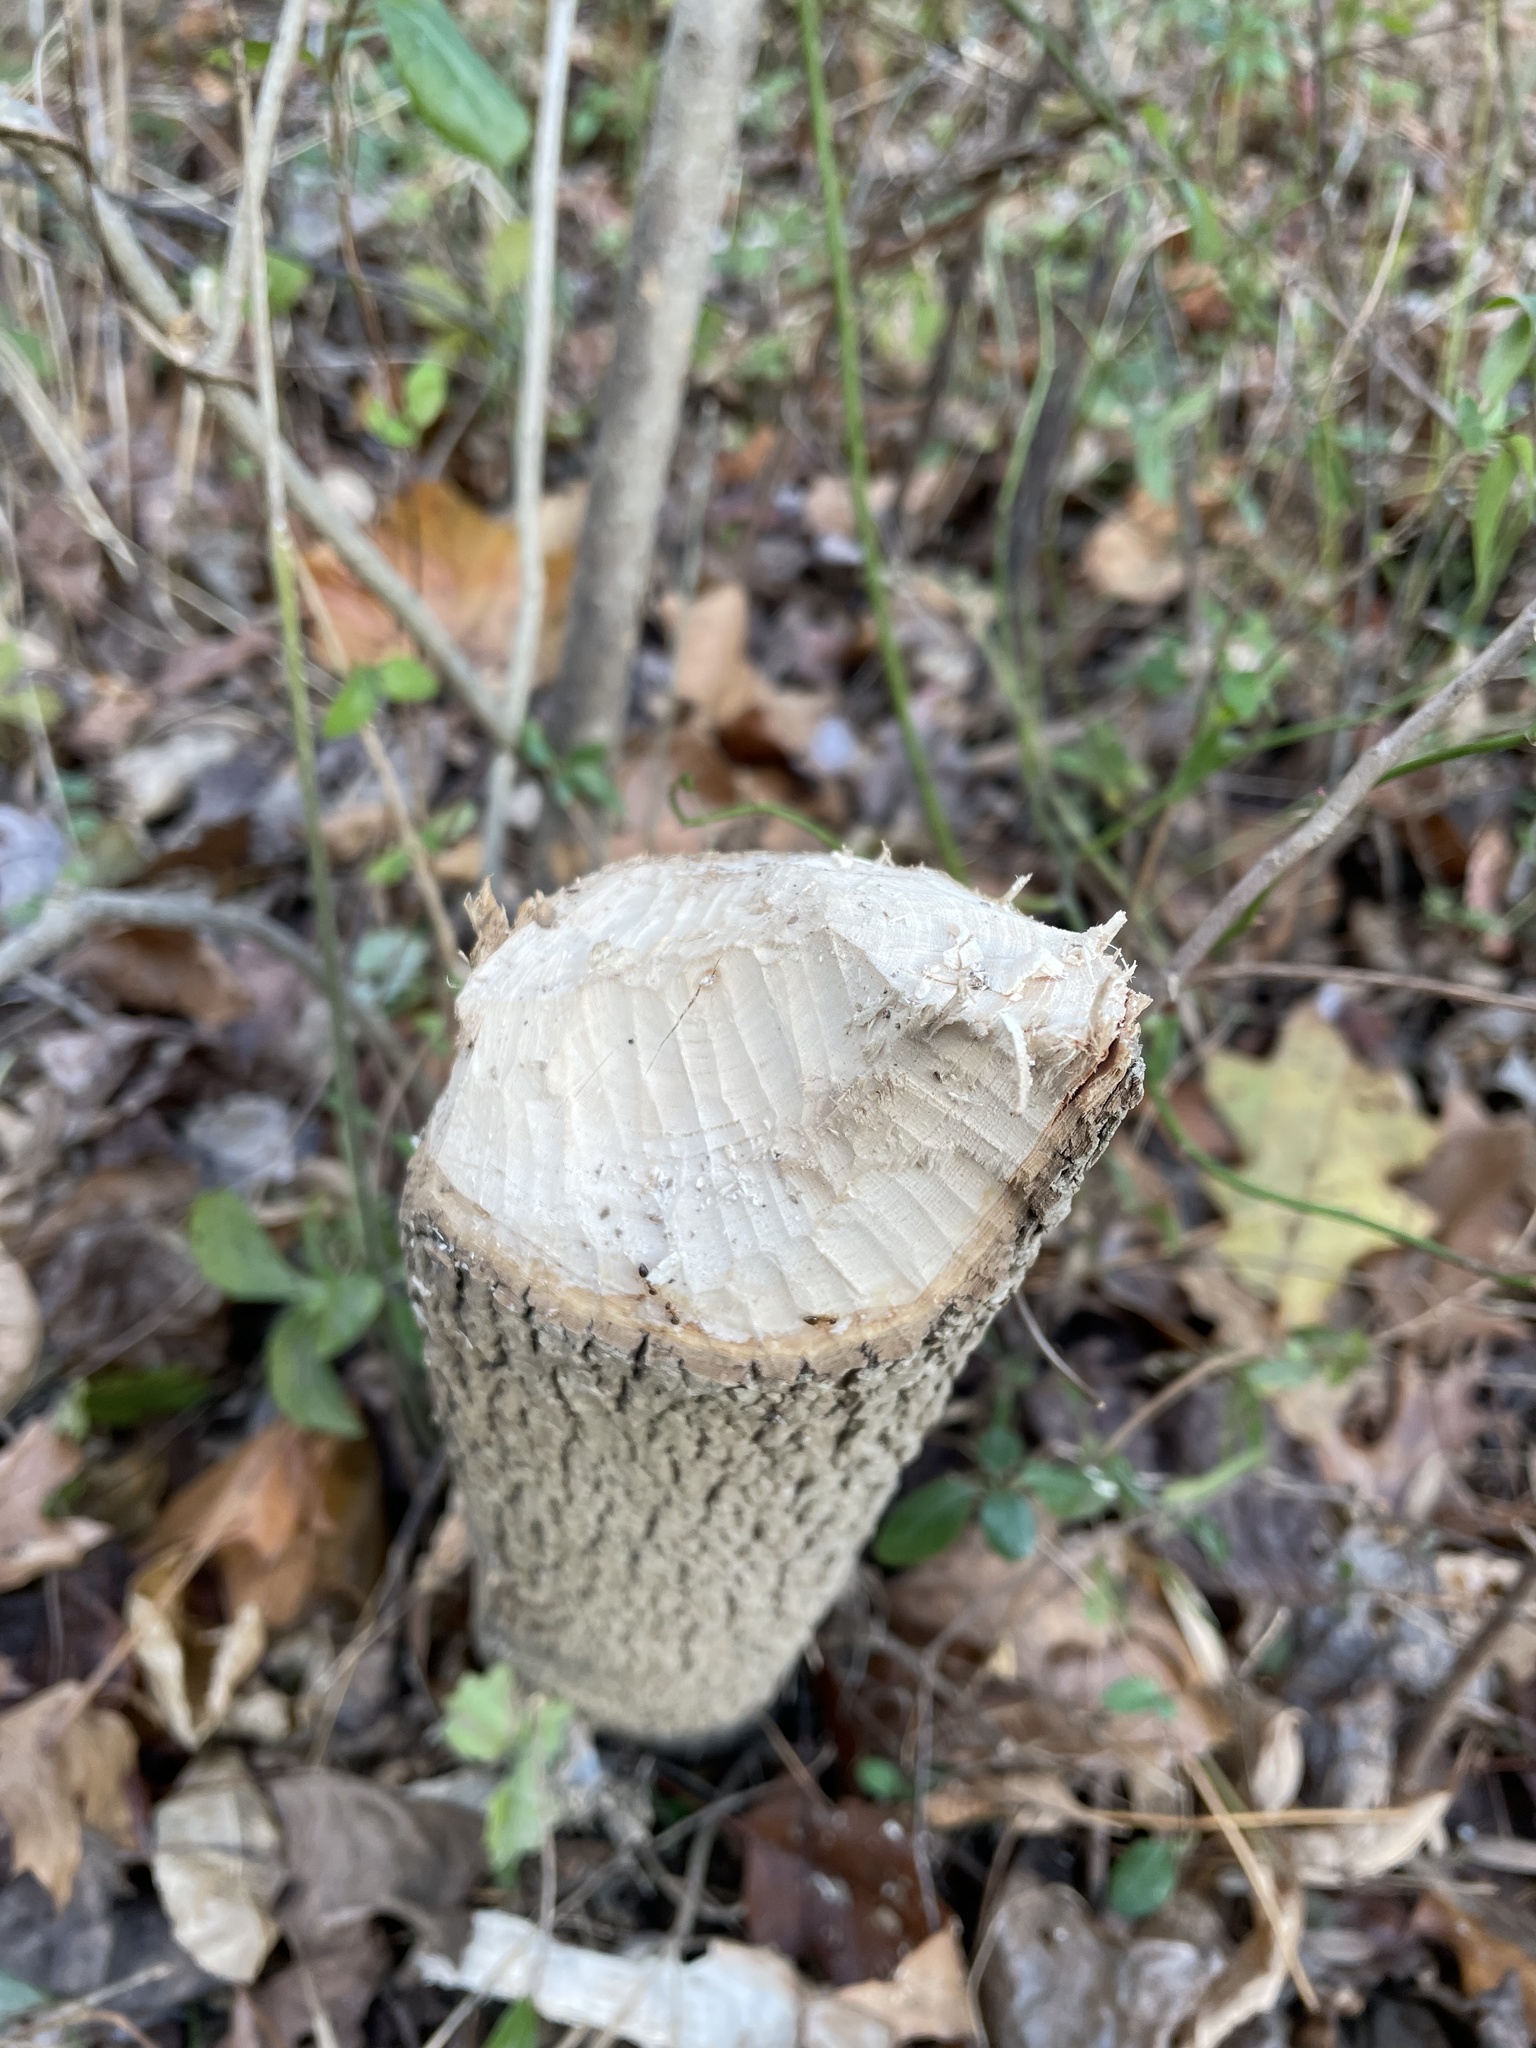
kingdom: Animalia
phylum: Chordata
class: Mammalia
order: Rodentia
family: Castoridae
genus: Castor
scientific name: Castor canadensis
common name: American beaver
